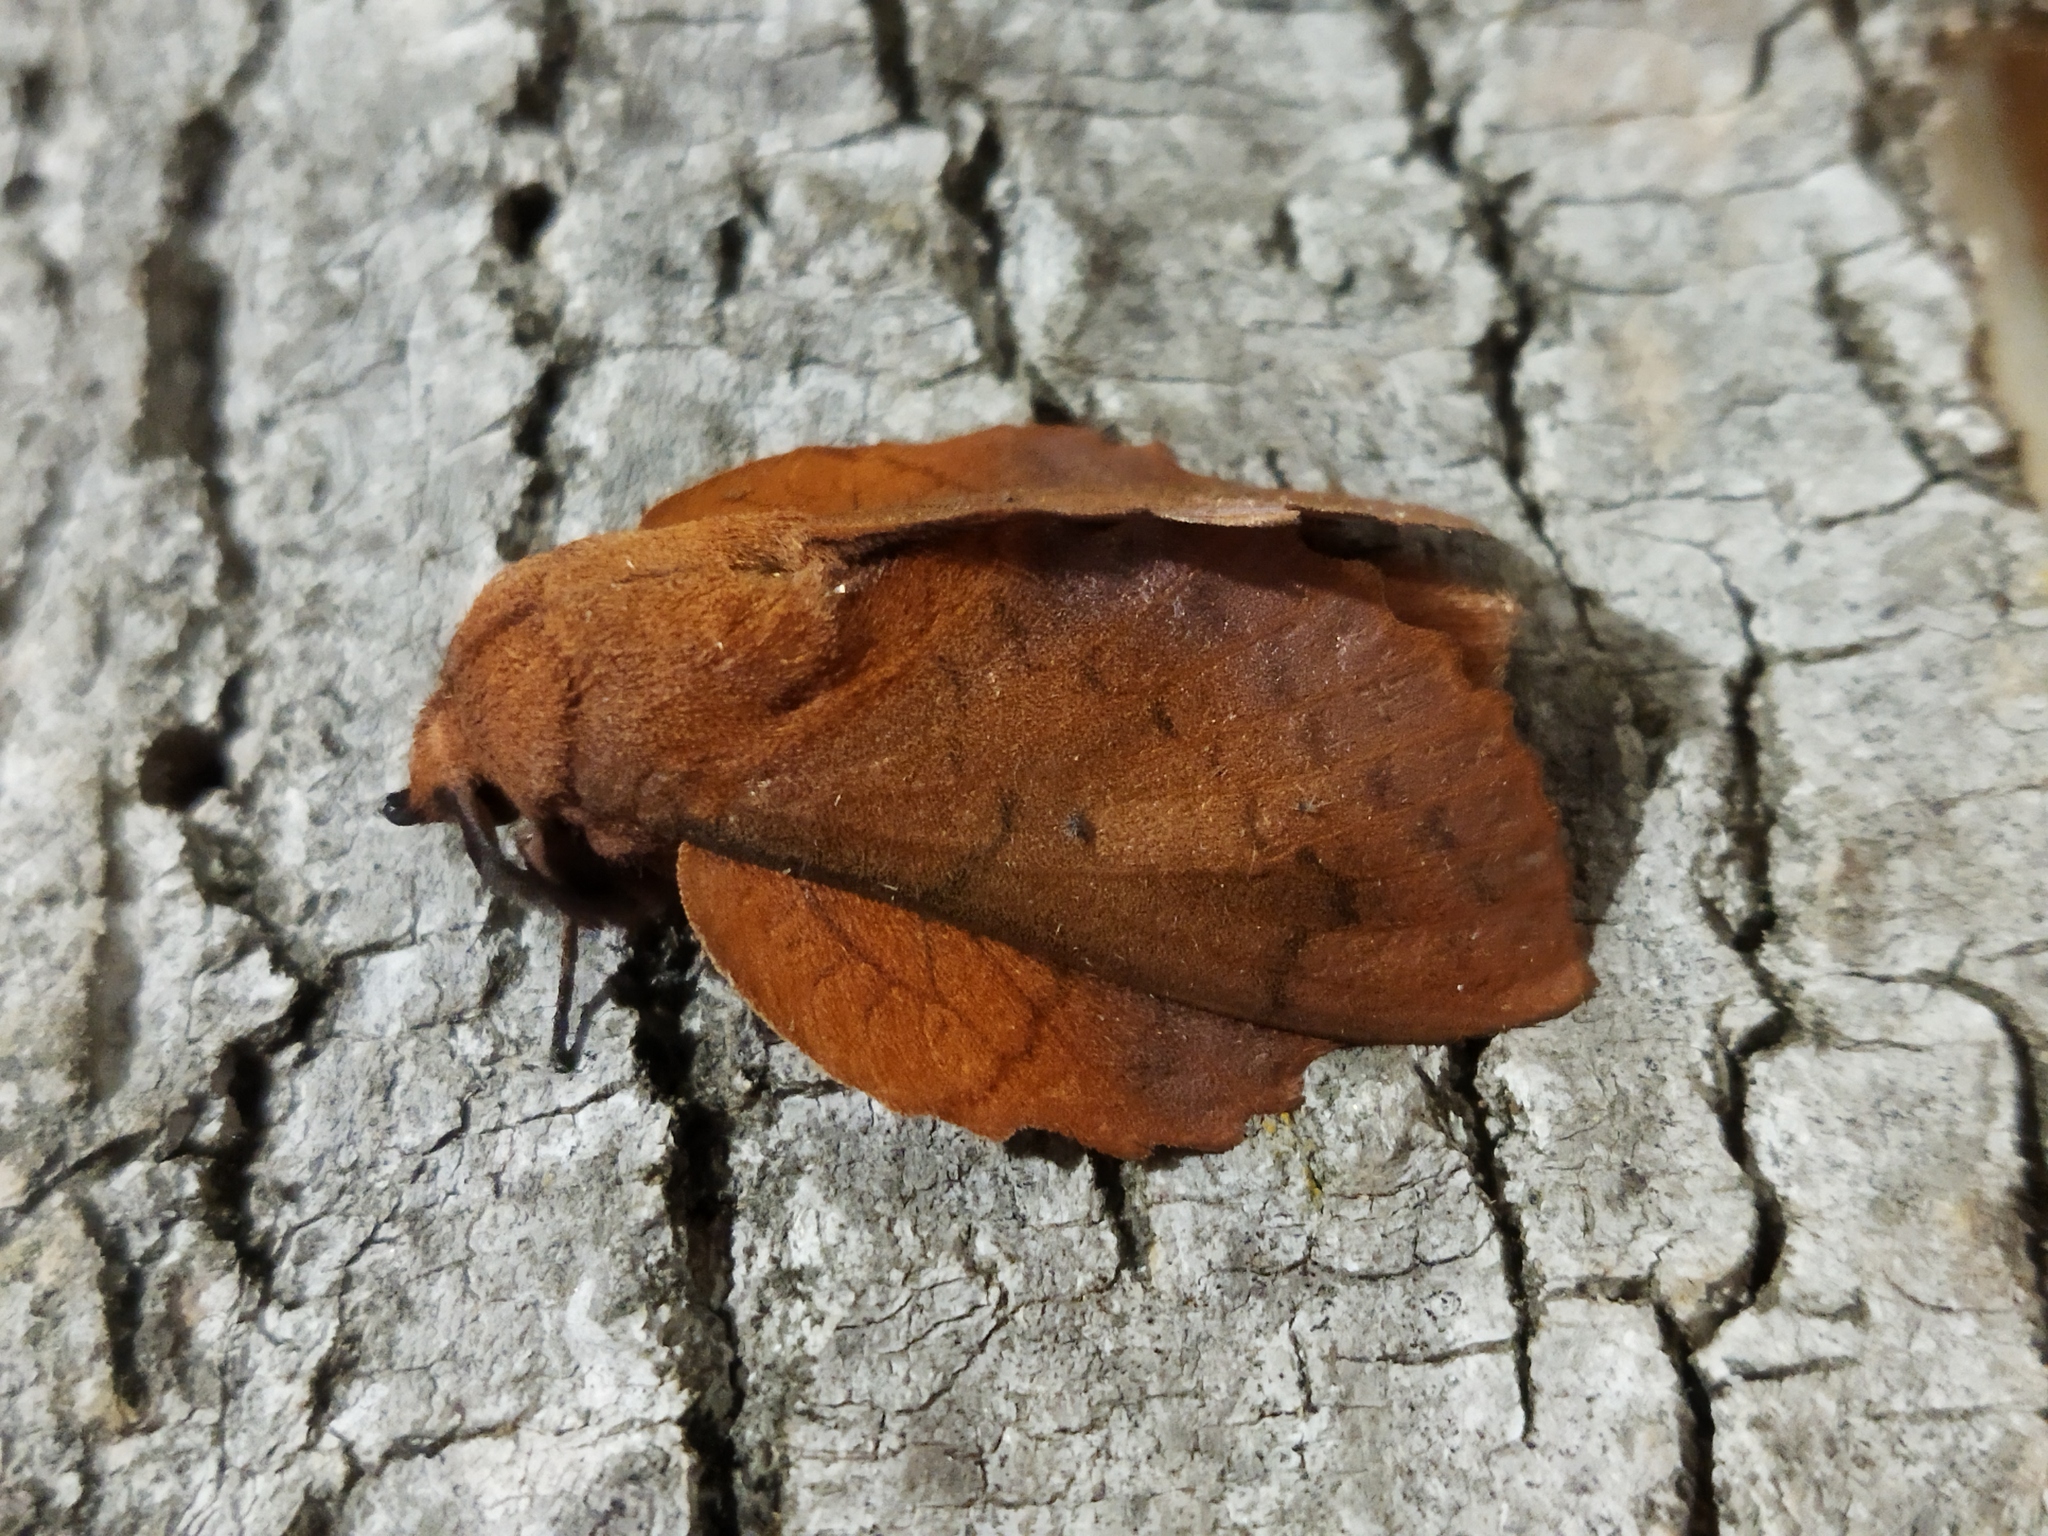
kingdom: Animalia
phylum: Arthropoda
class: Insecta
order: Lepidoptera
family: Lasiocampidae
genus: Gastropacha
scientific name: Gastropacha quercifolia
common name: Lappet
